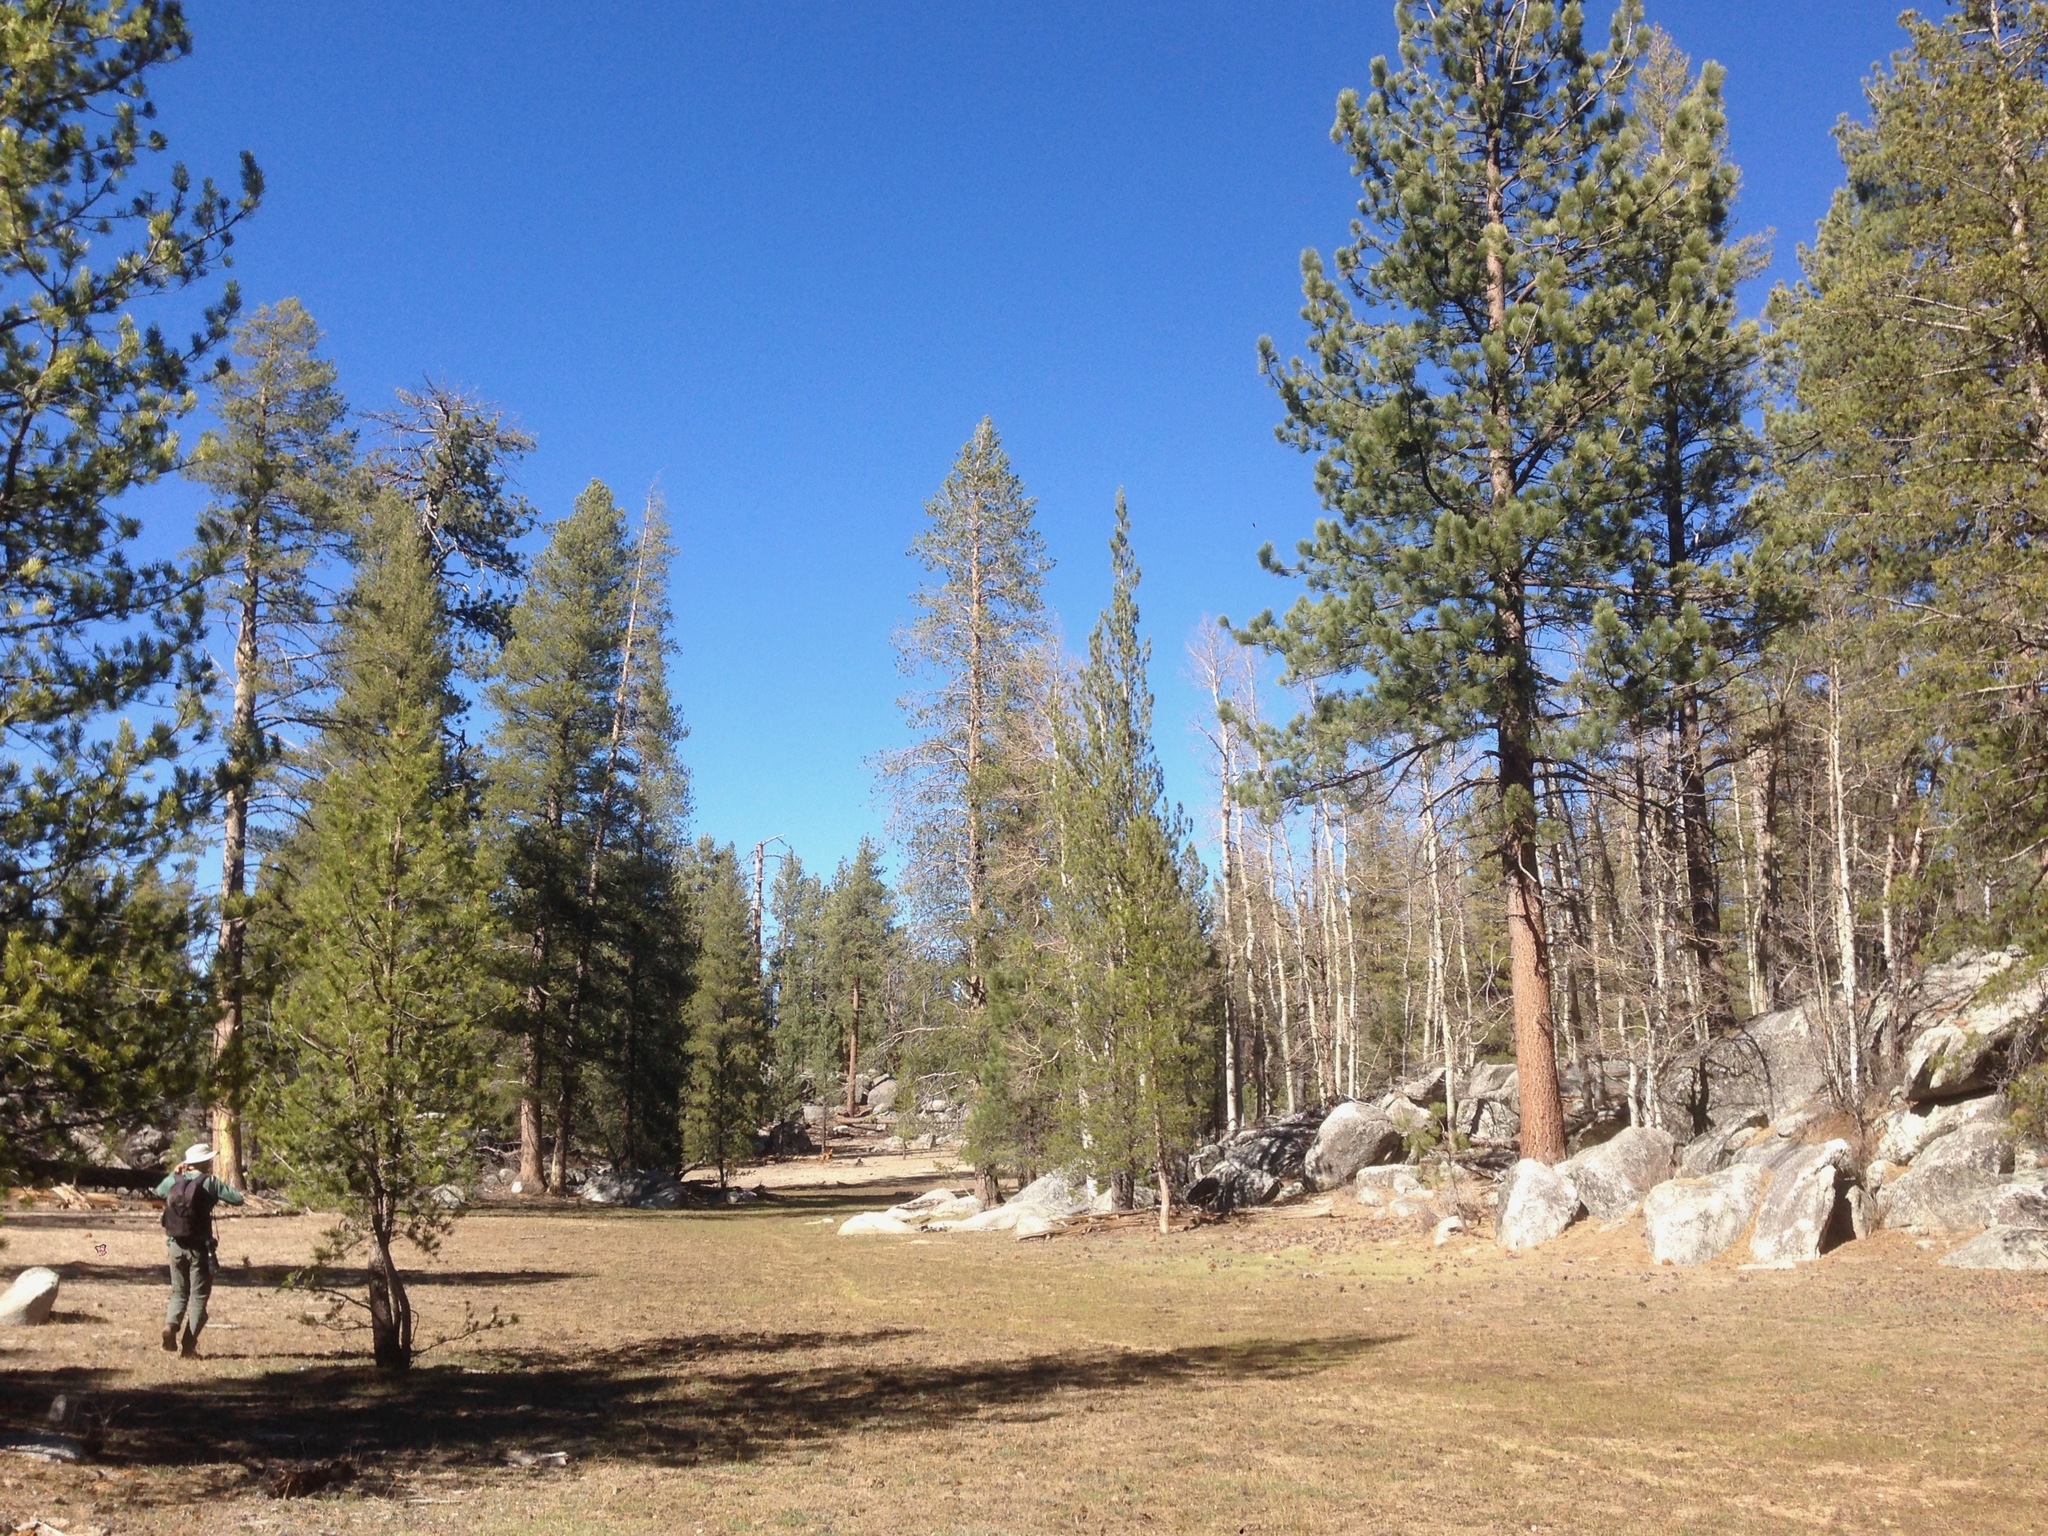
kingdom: Plantae
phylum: Tracheophyta
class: Pinopsida
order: Pinales
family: Pinaceae
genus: Pinus
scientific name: Pinus contorta
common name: Lodgepole pine
